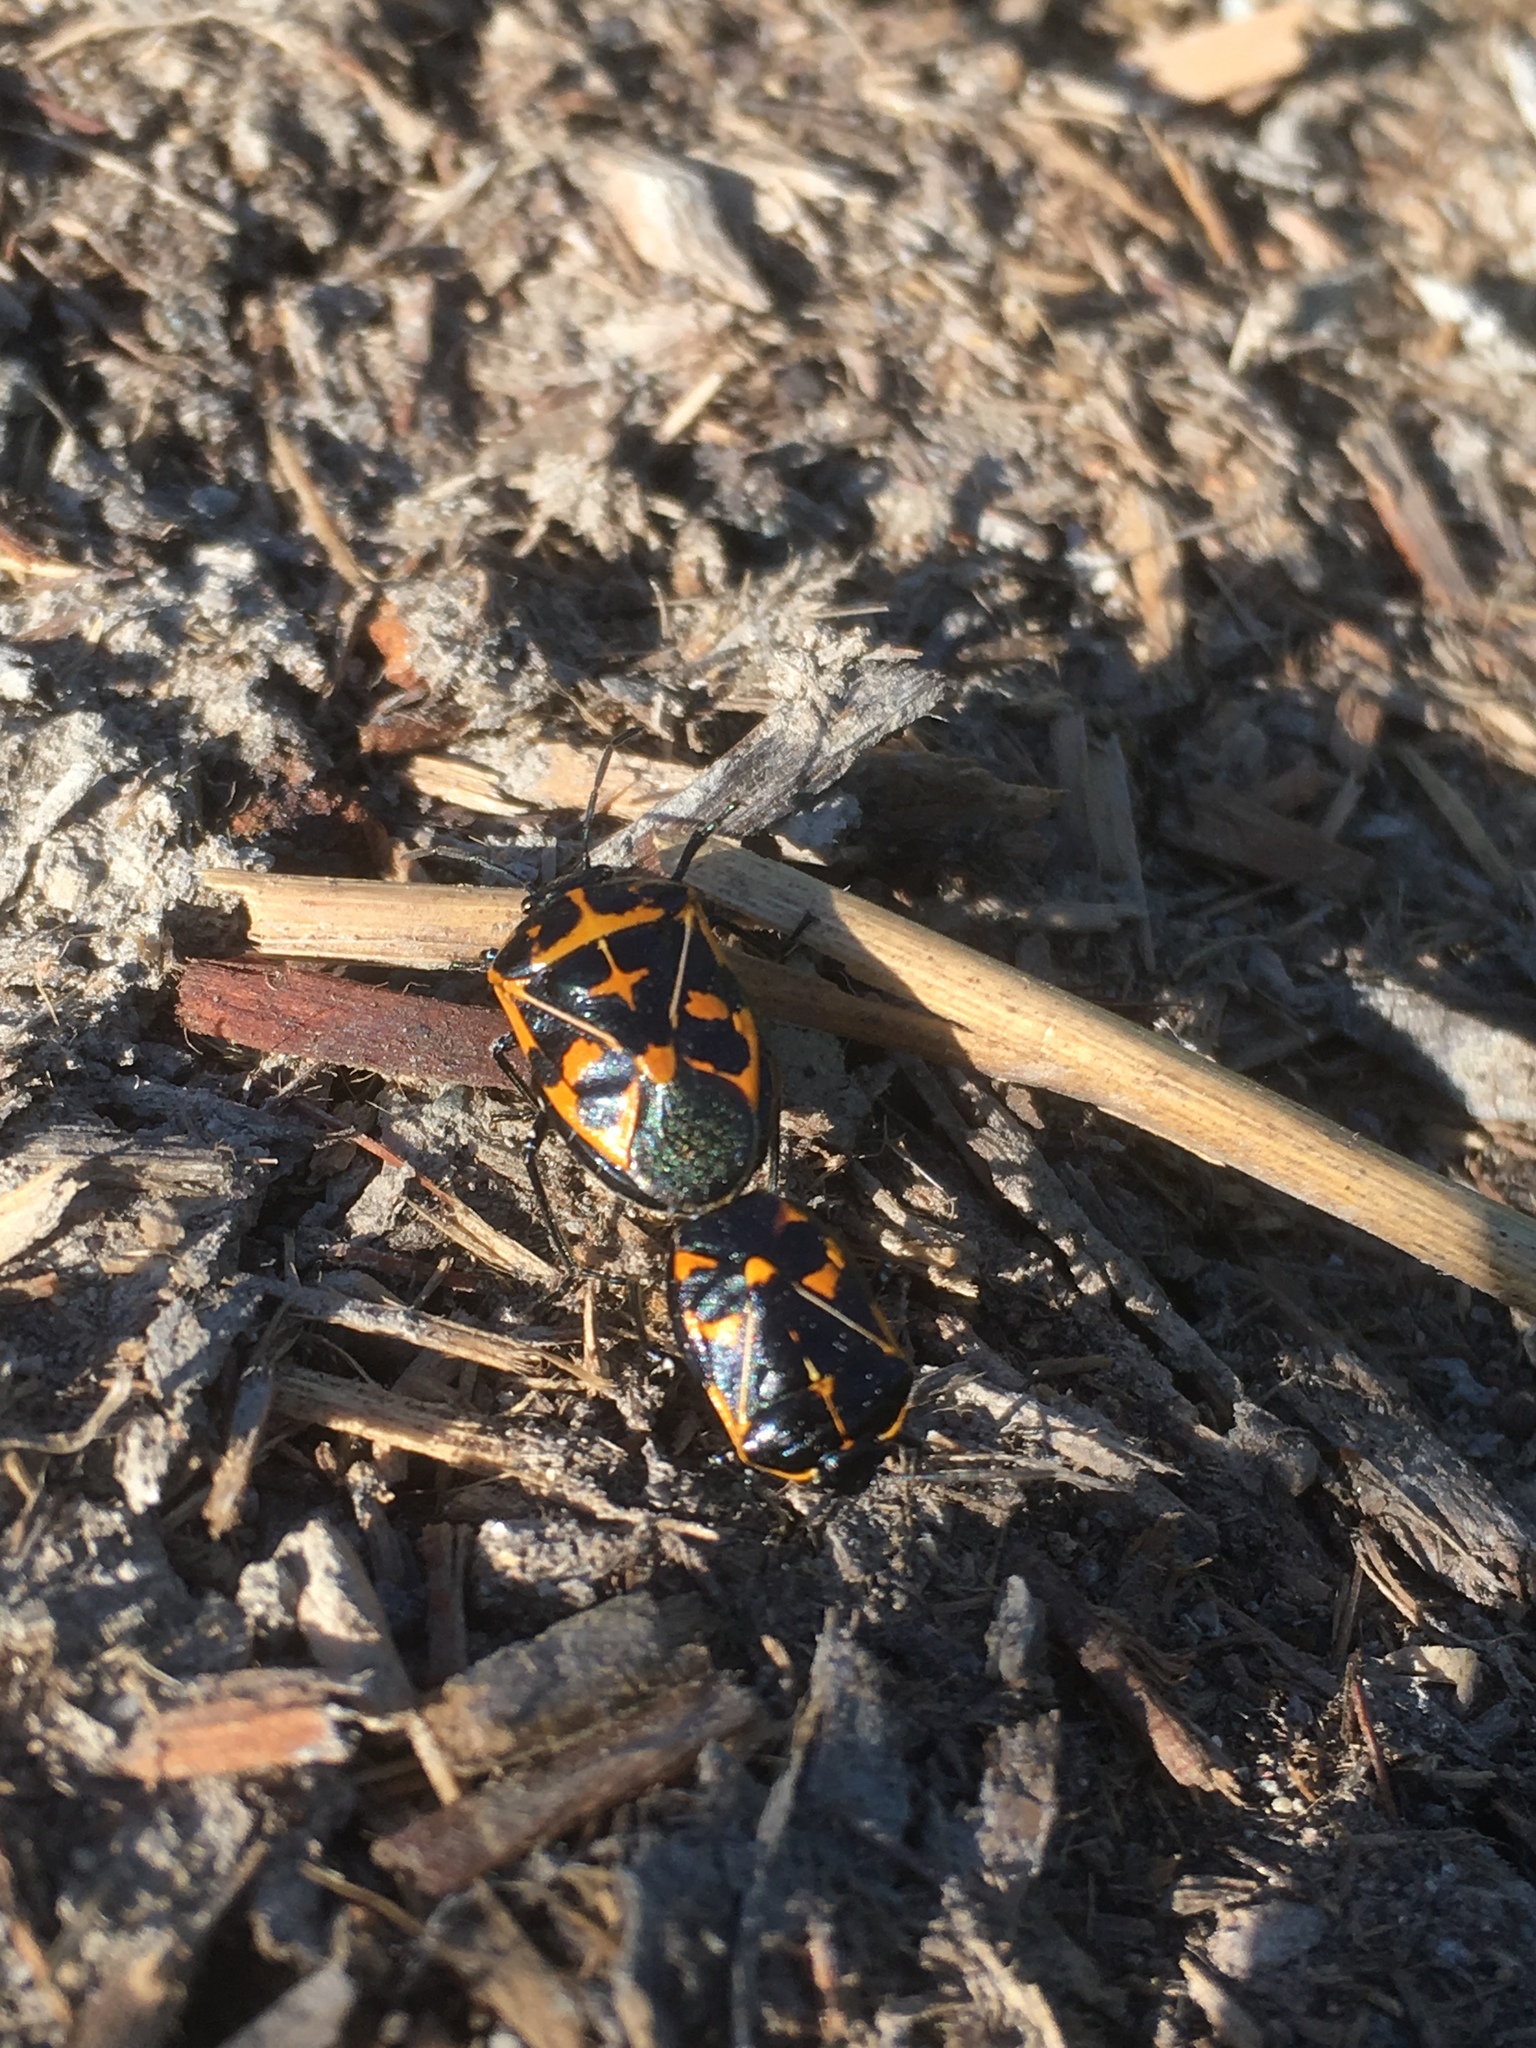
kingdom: Animalia
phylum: Arthropoda
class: Insecta
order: Hemiptera
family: Pentatomidae
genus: Murgantia
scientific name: Murgantia histrionica
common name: Harlequin bug
